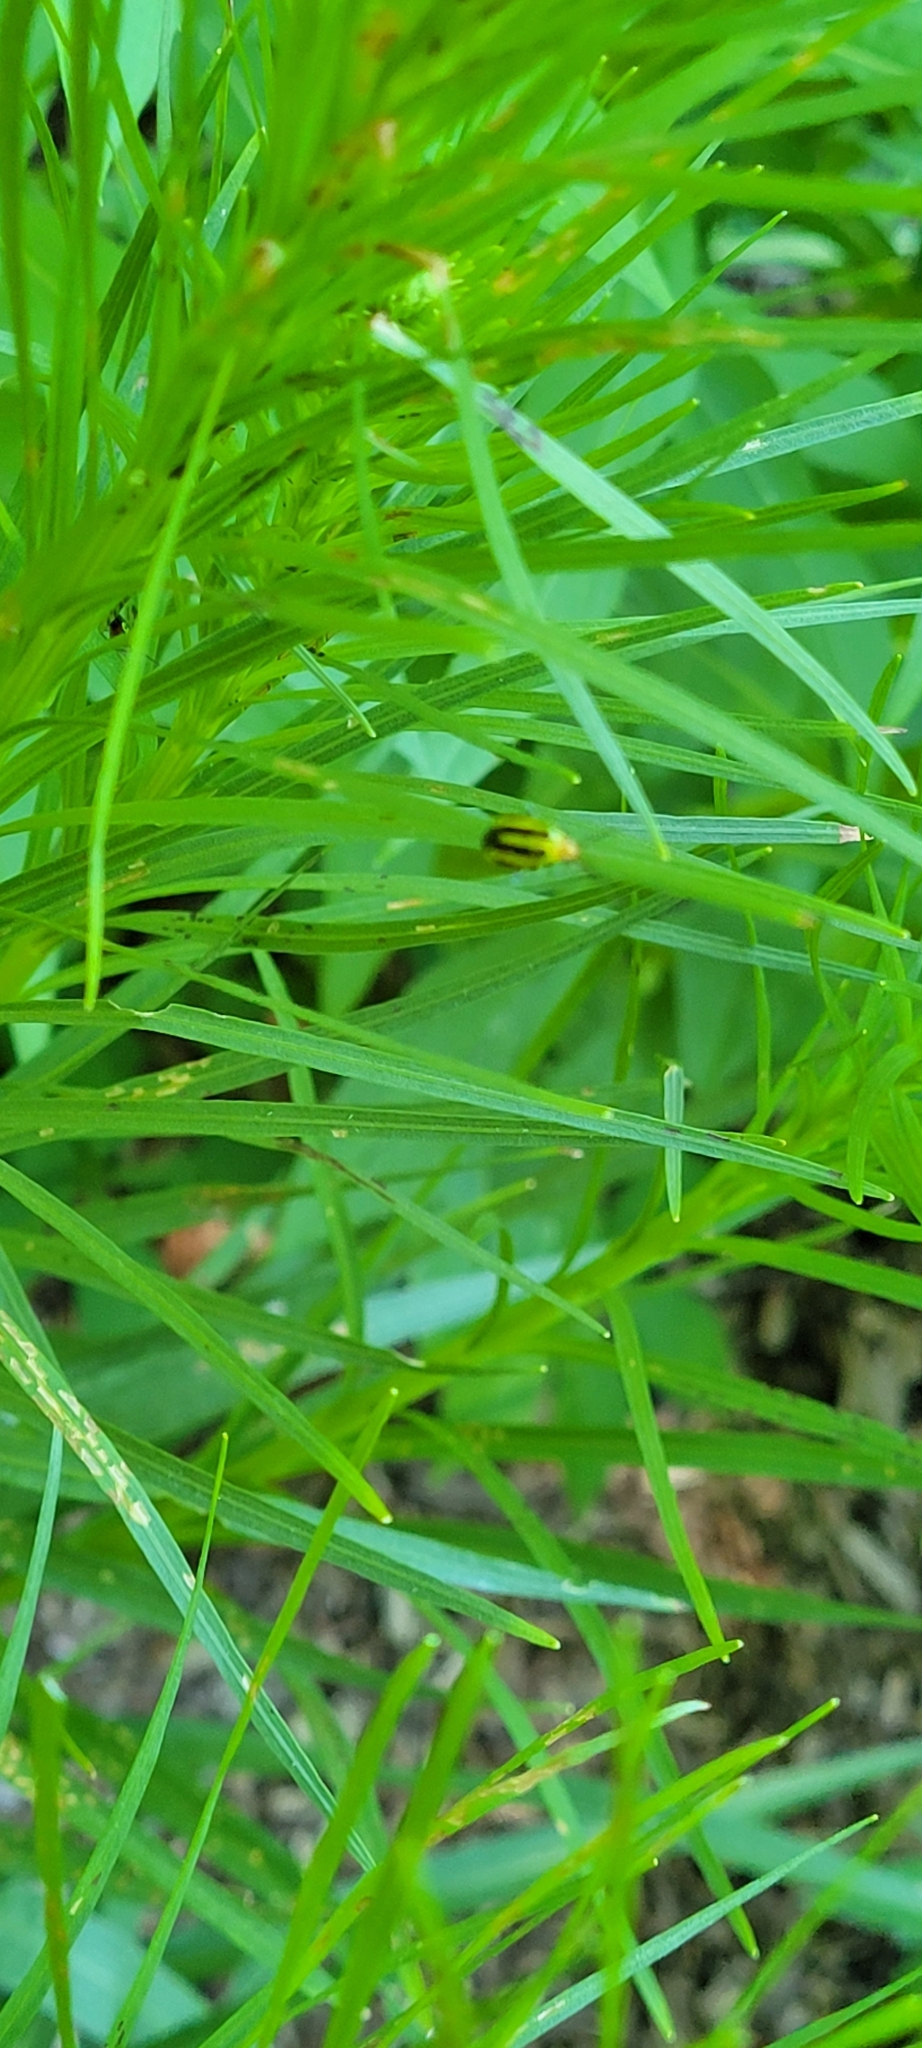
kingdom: Animalia
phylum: Arthropoda
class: Insecta
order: Hemiptera
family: Miridae
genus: Poecilocapsus
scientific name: Poecilocapsus lineatus
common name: Four-lined plant bug
